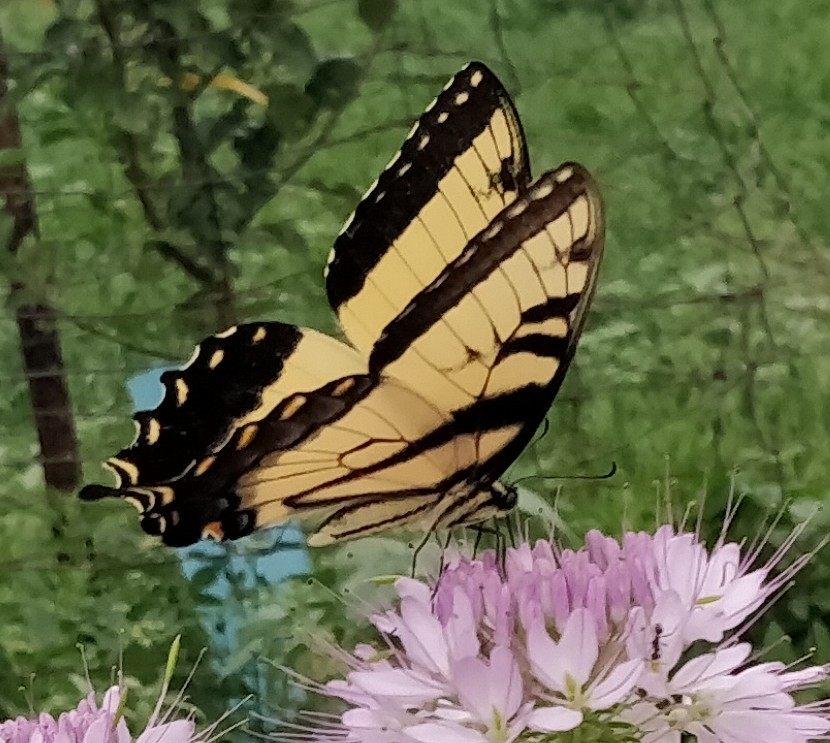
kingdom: Animalia
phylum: Arthropoda
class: Insecta
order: Lepidoptera
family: Papilionidae
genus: Papilio
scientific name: Papilio glaucus
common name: Tiger swallowtail
